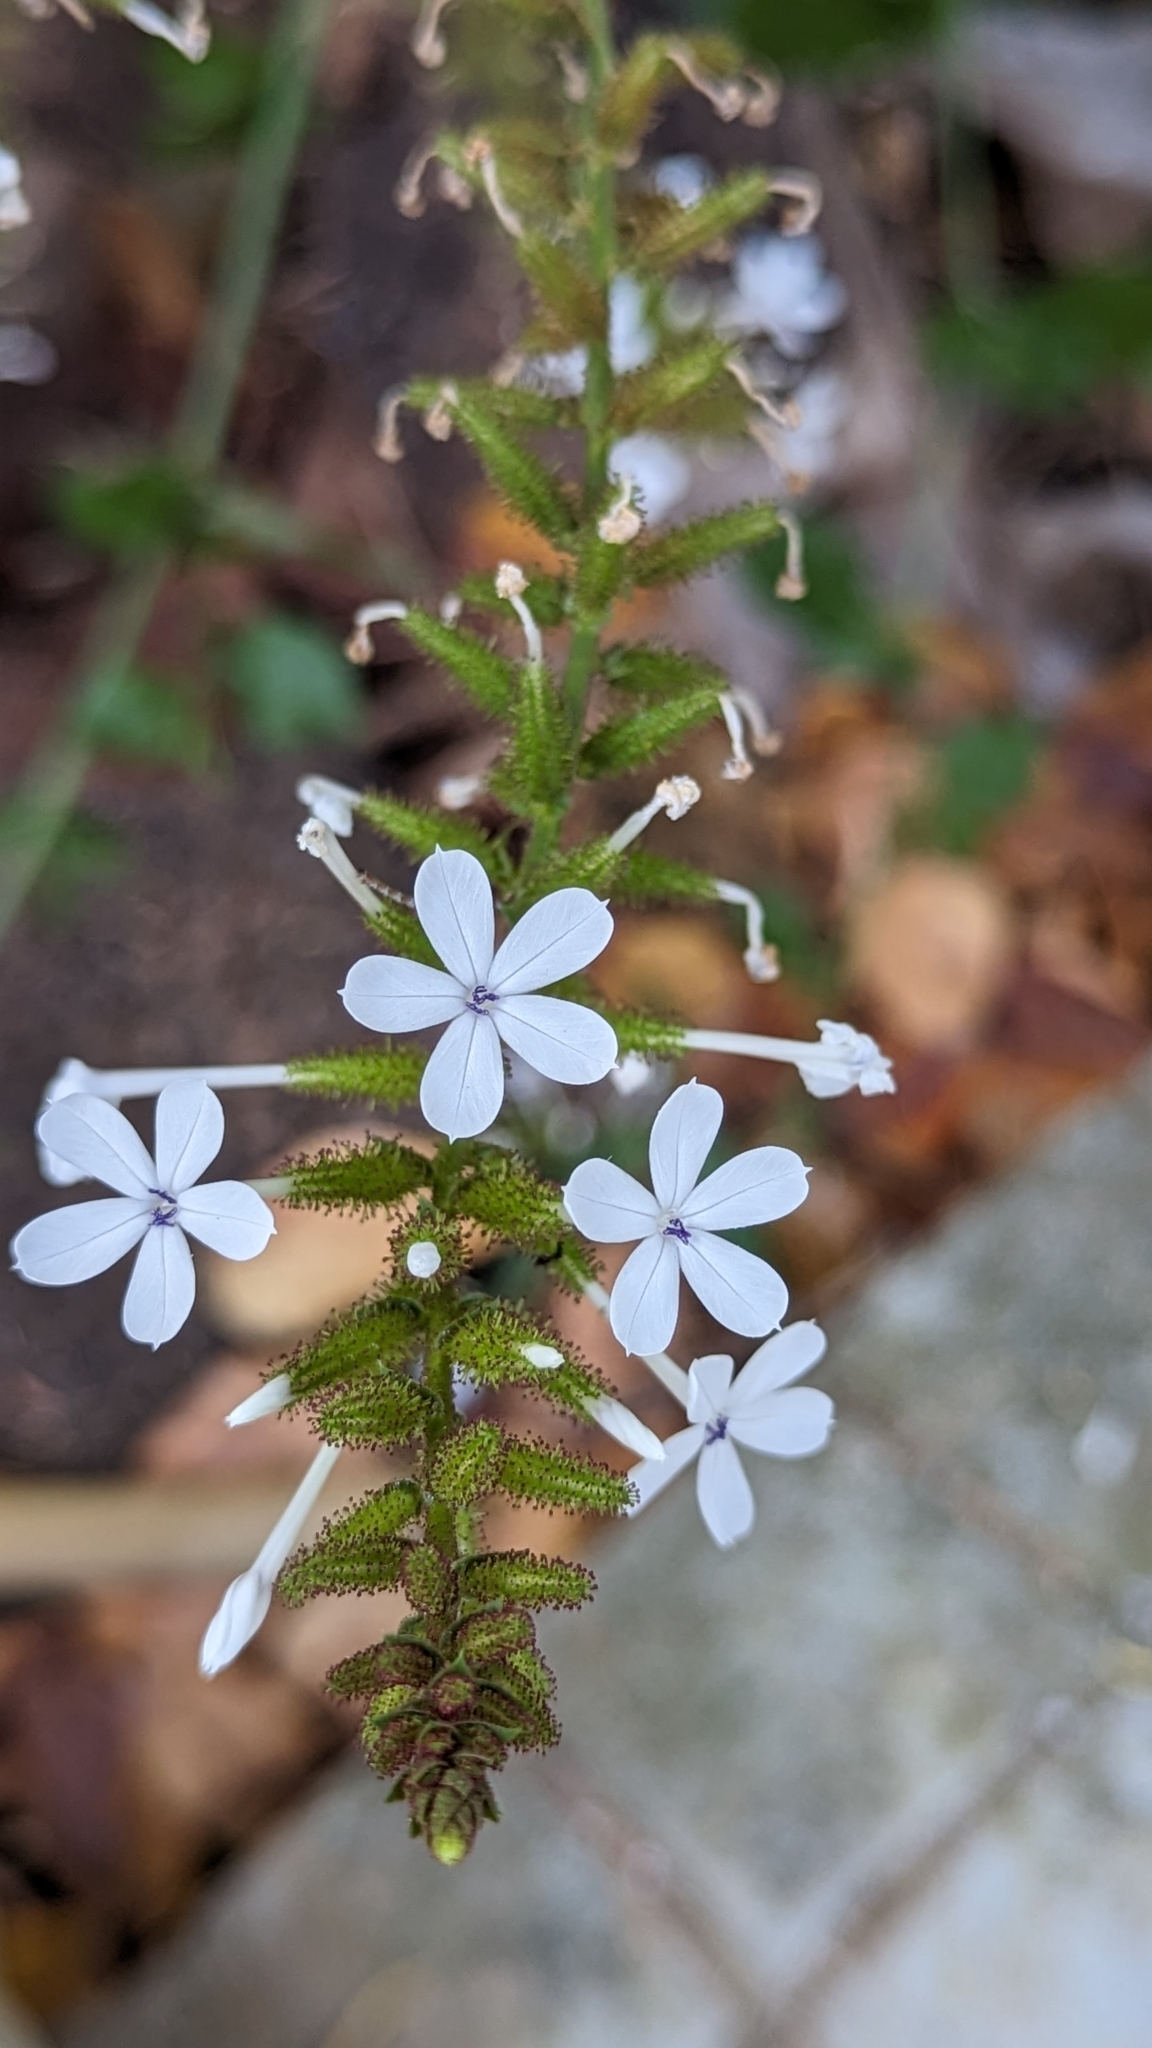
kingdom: Plantae
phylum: Tracheophyta
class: Magnoliopsida
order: Caryophyllales
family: Plumbaginaceae
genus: Plumbago
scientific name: Plumbago zeylanica
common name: Doctorbush
